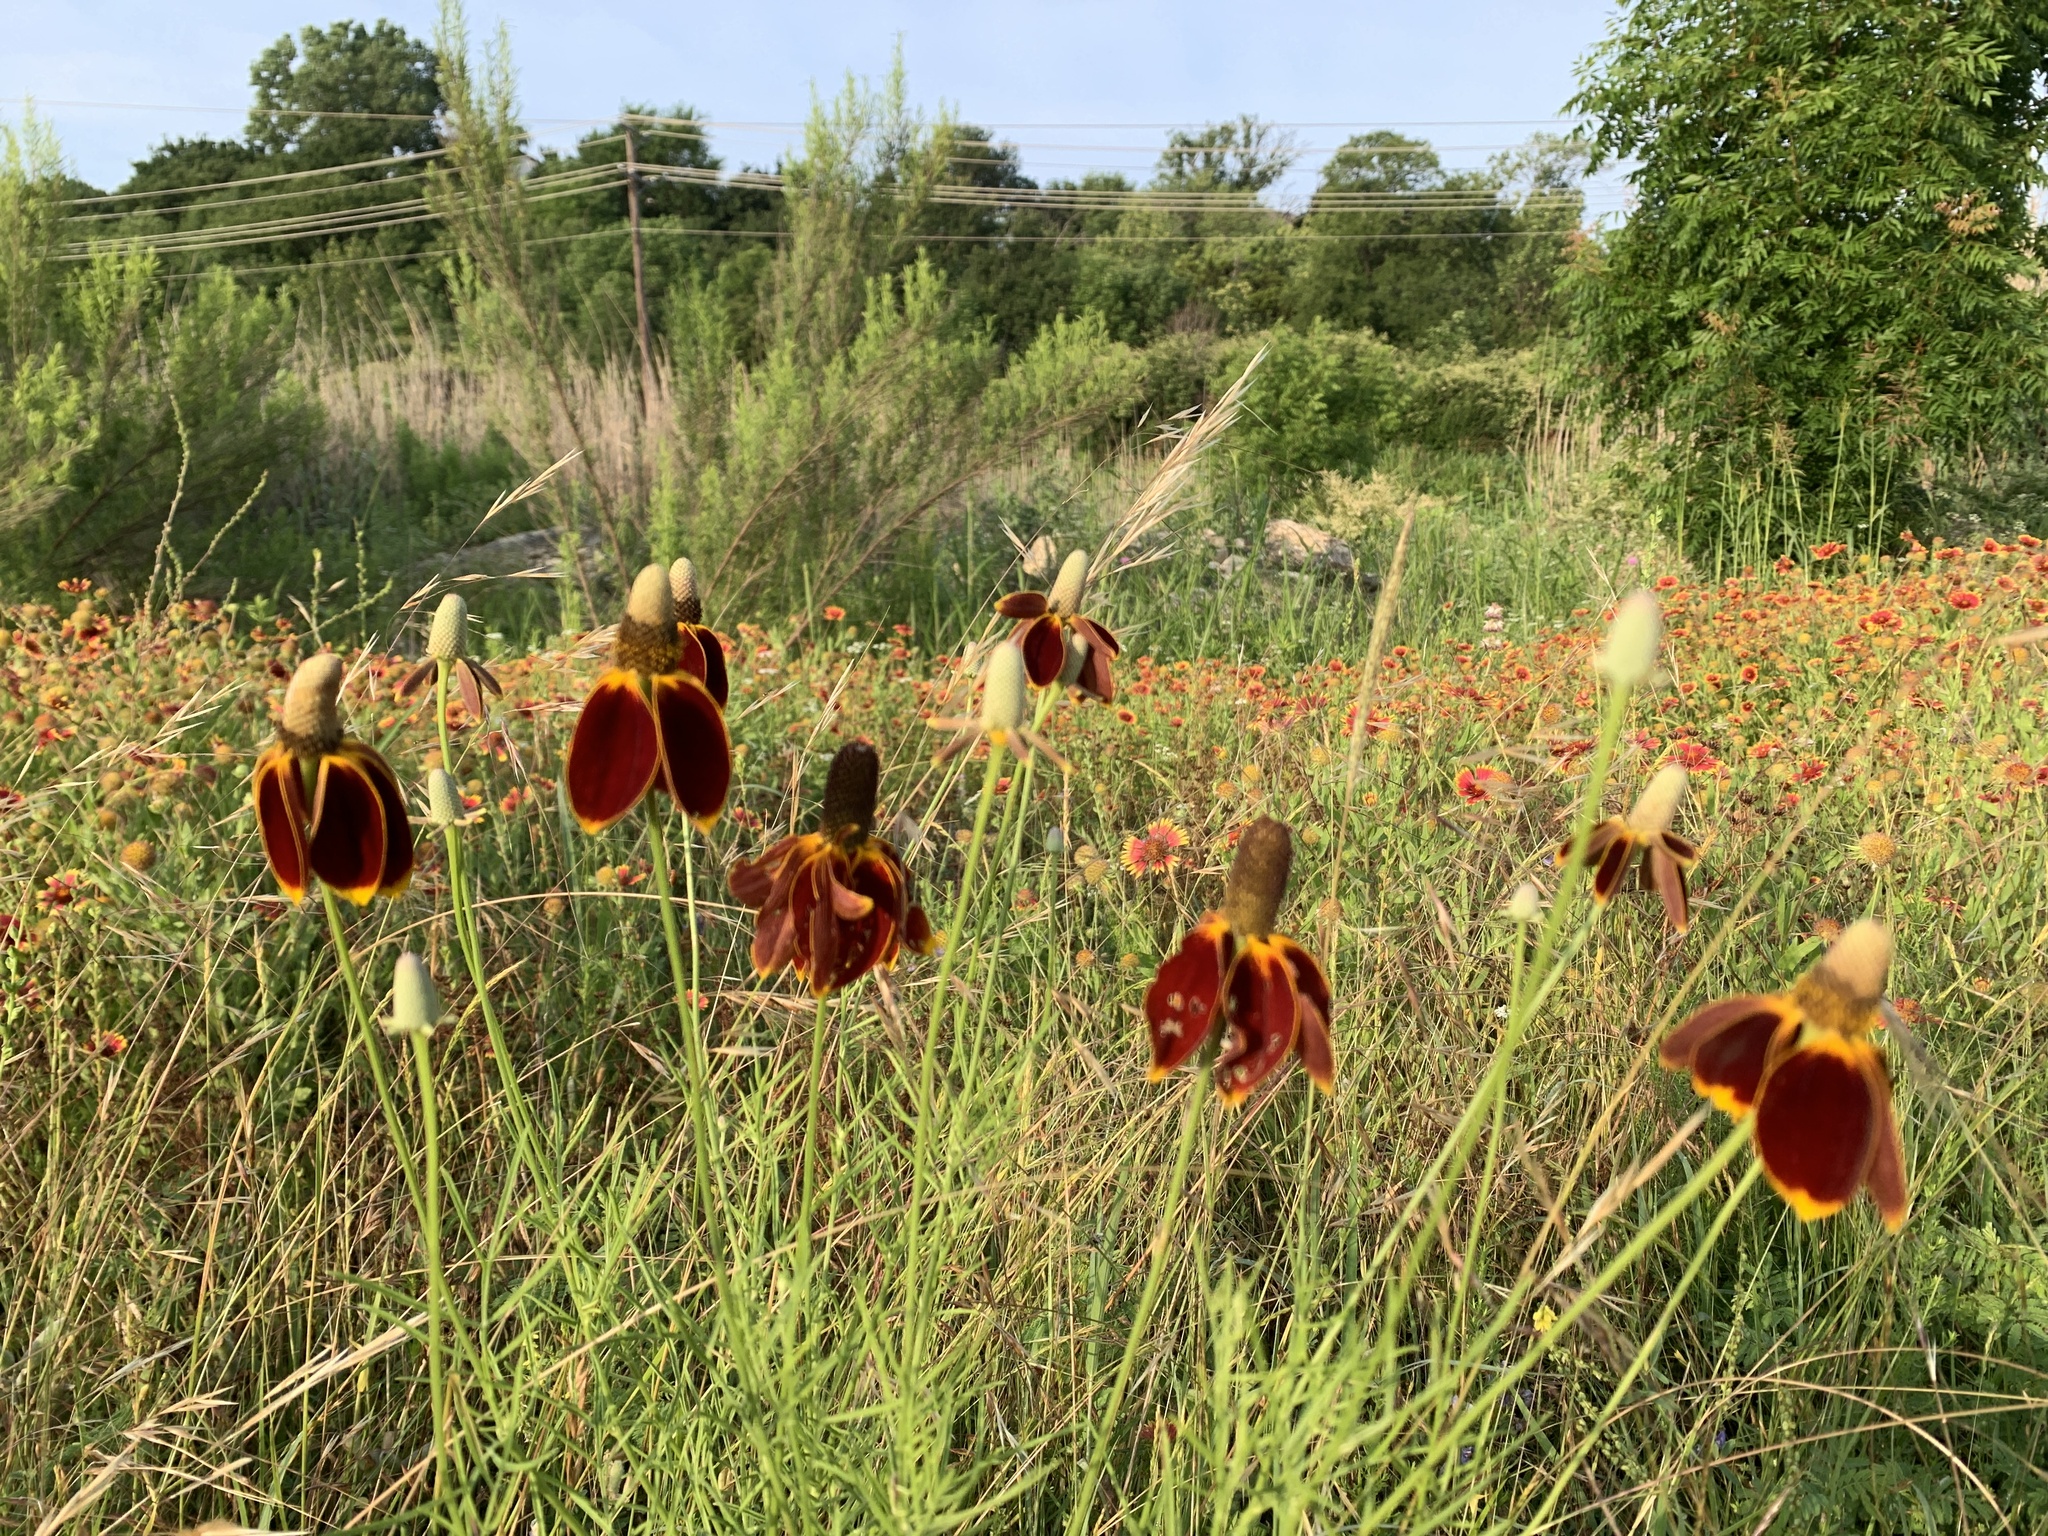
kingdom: Plantae
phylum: Tracheophyta
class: Magnoliopsida
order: Asterales
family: Asteraceae
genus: Ratibida
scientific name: Ratibida columnifera
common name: Prairie coneflower
